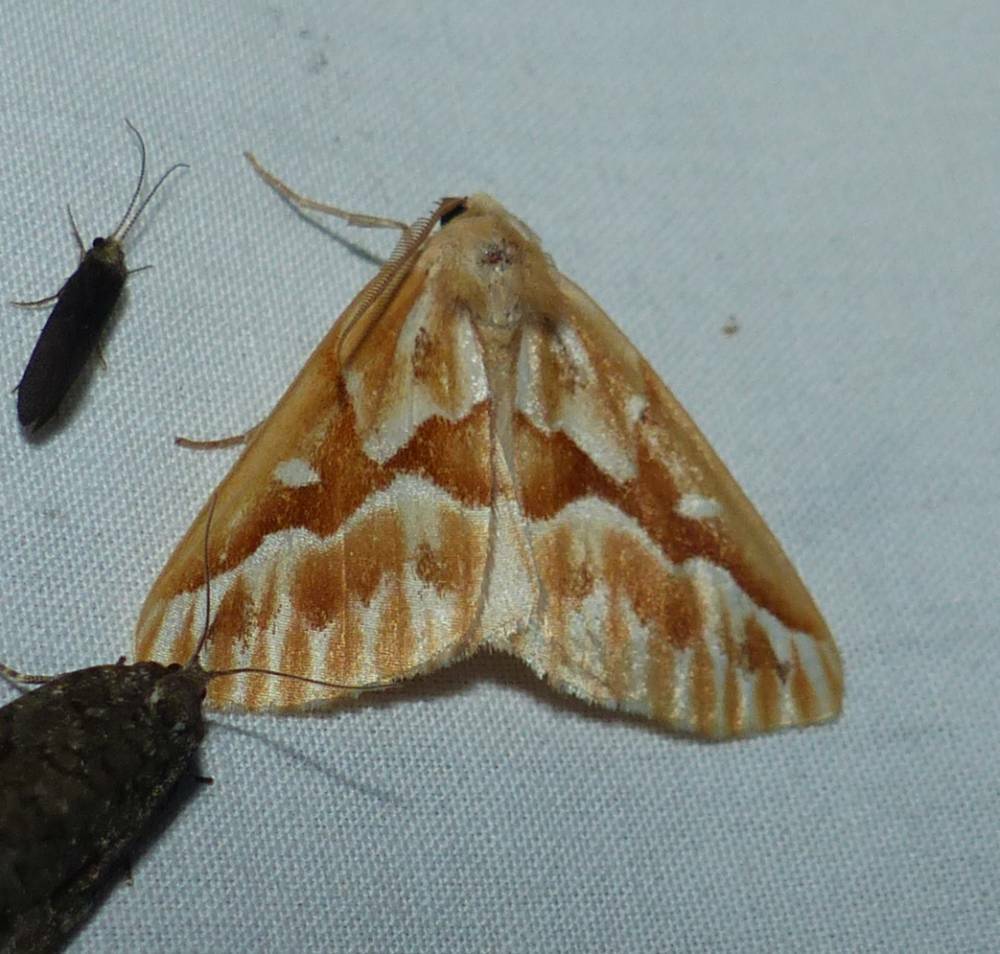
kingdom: Animalia
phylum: Arthropoda
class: Insecta
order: Lepidoptera
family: Geometridae
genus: Caripeta
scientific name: Caripeta piniata
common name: Northern pine looper moth
